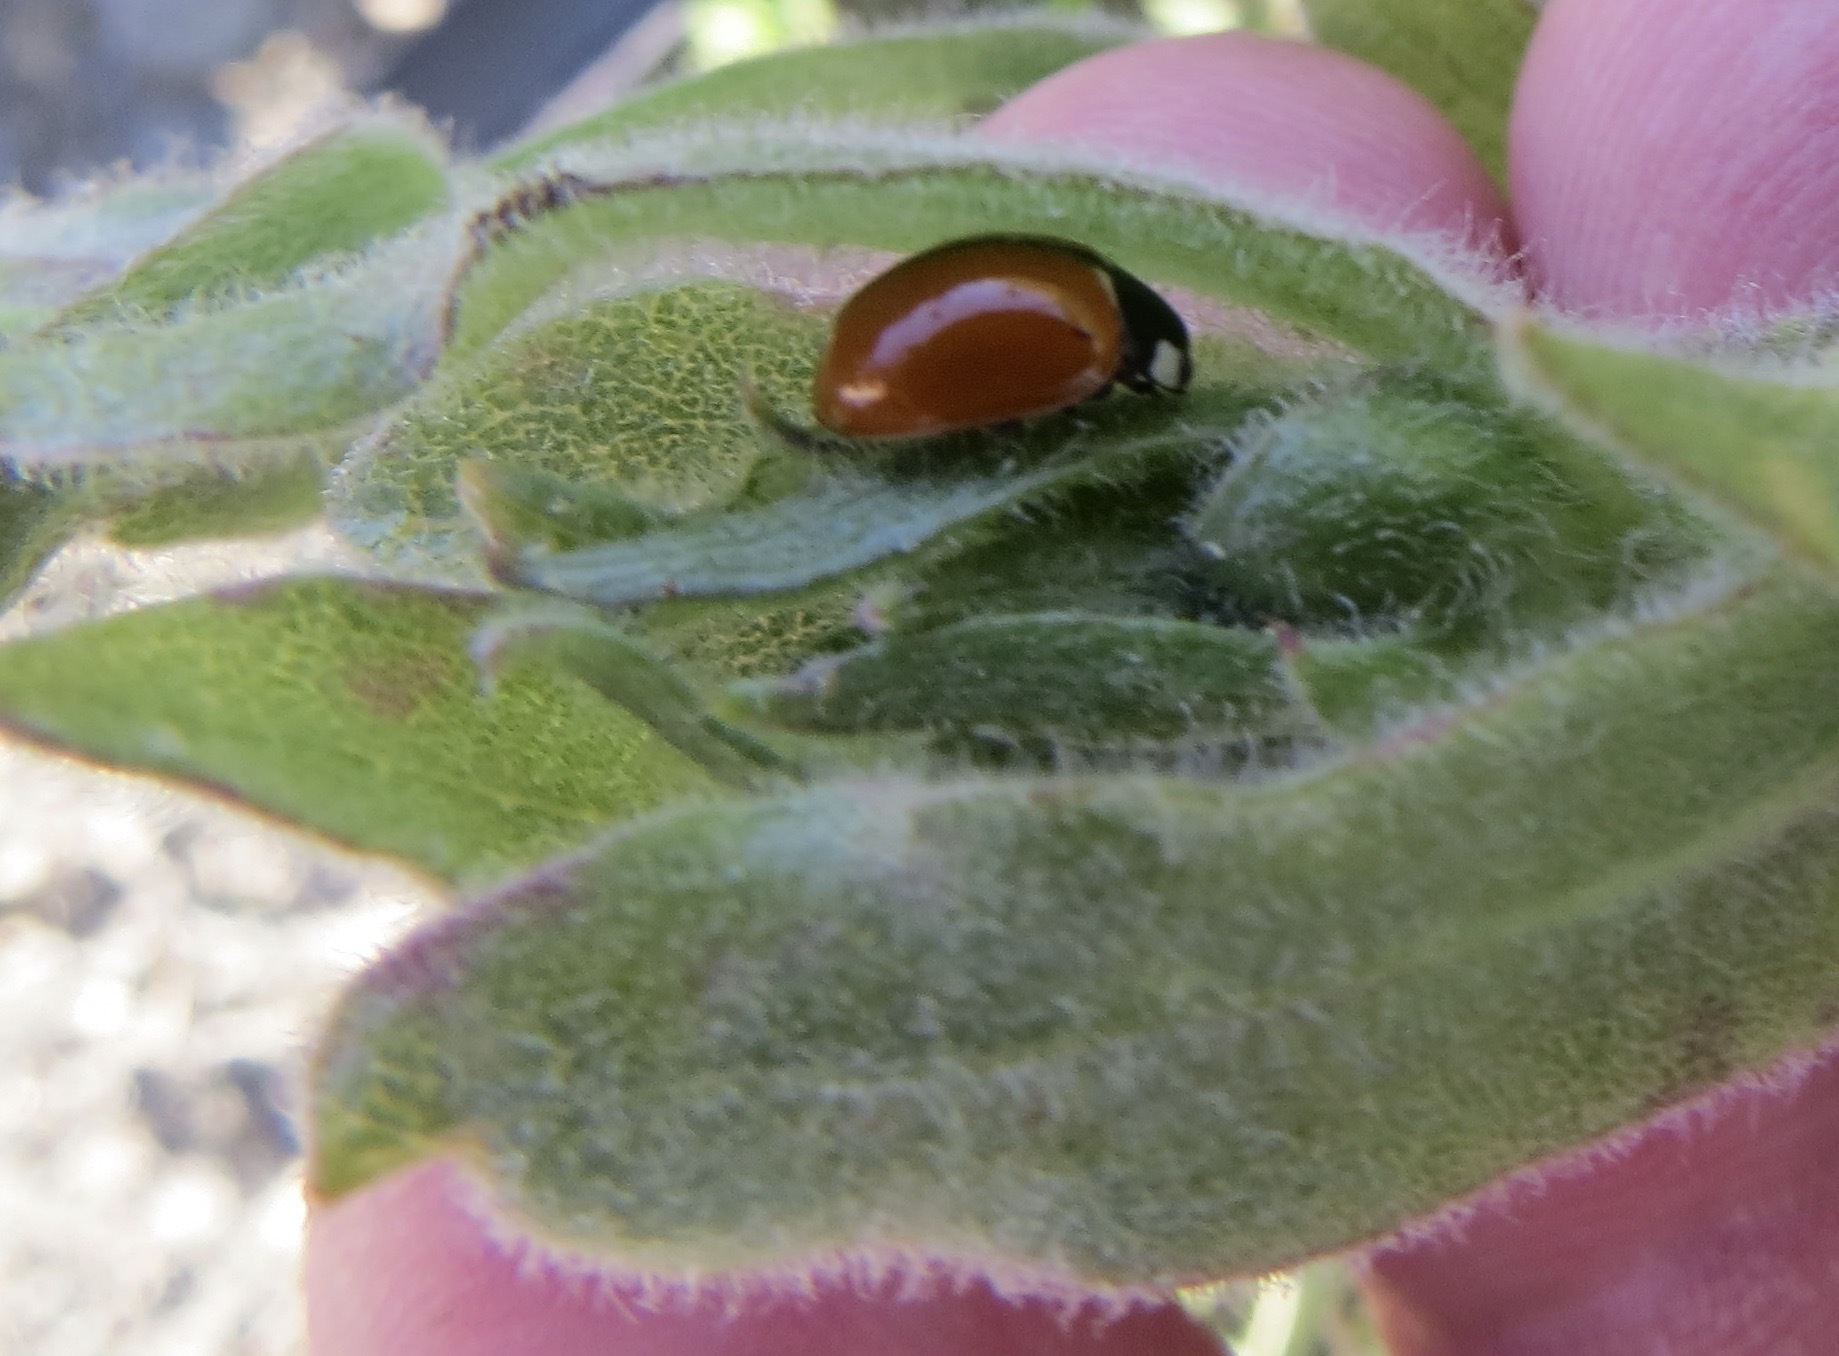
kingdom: Animalia
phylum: Arthropoda
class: Insecta
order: Coleoptera
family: Coccinellidae
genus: Coccinella
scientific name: Coccinella californica
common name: Lady beetle
